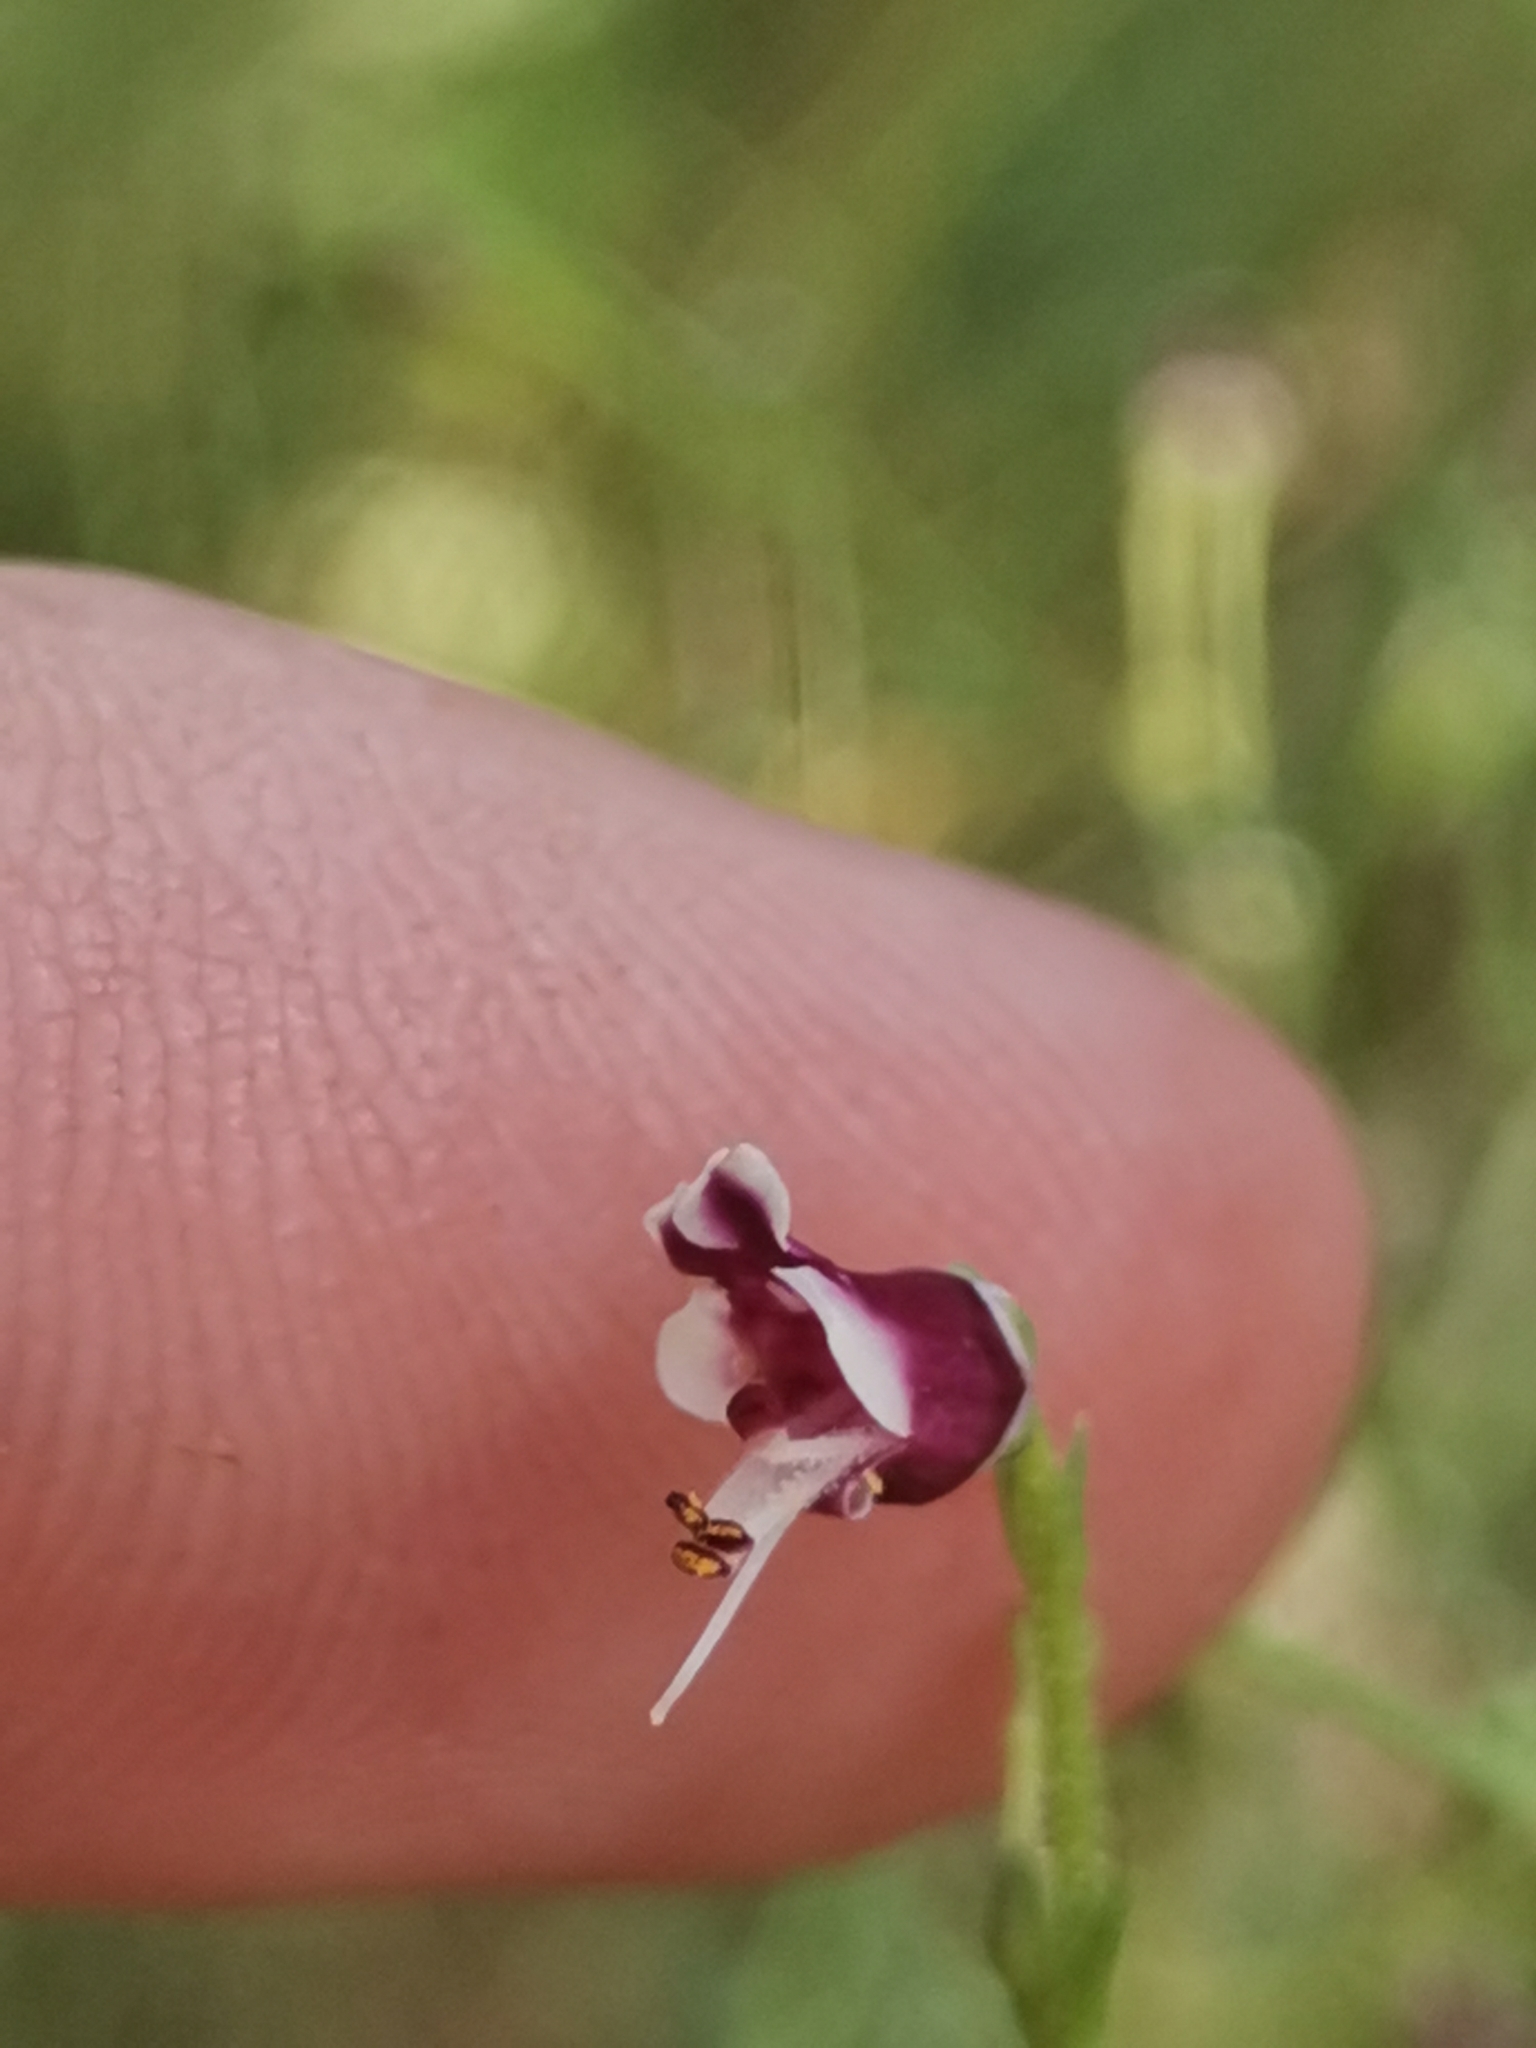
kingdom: Plantae
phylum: Tracheophyta
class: Magnoliopsida
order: Lamiales
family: Scrophulariaceae
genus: Scrophularia
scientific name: Scrophularia canina
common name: French figwort
